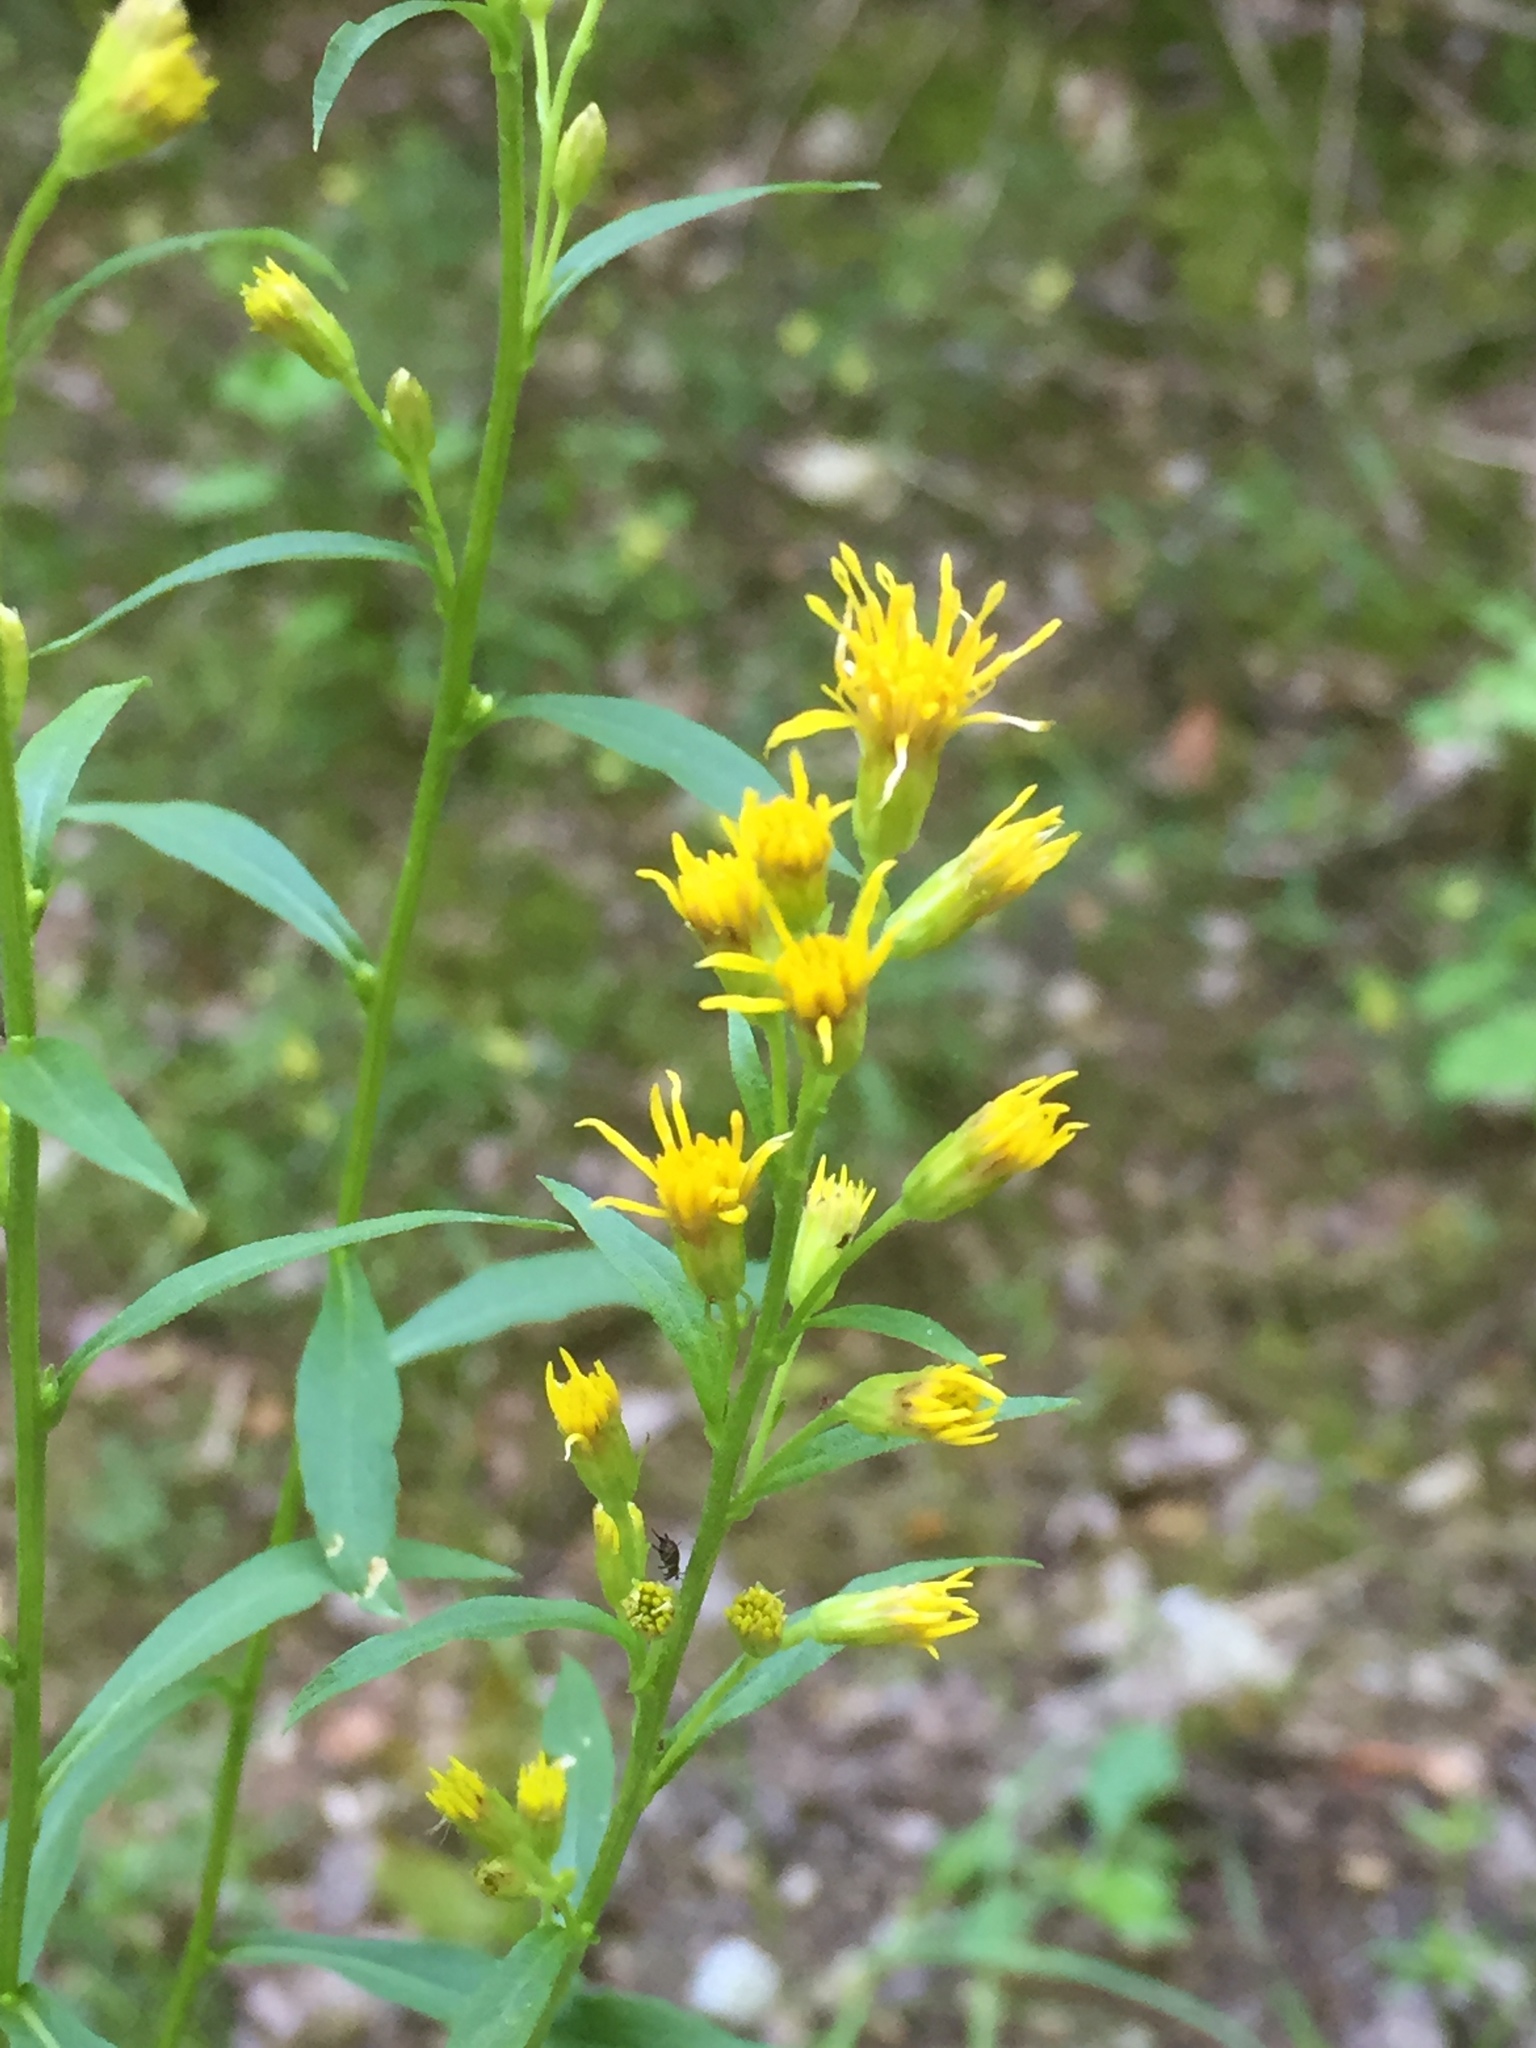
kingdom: Plantae
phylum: Tracheophyta
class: Magnoliopsida
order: Asterales
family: Asteraceae
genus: Solidago
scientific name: Solidago virgaurea
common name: Goldenrod
